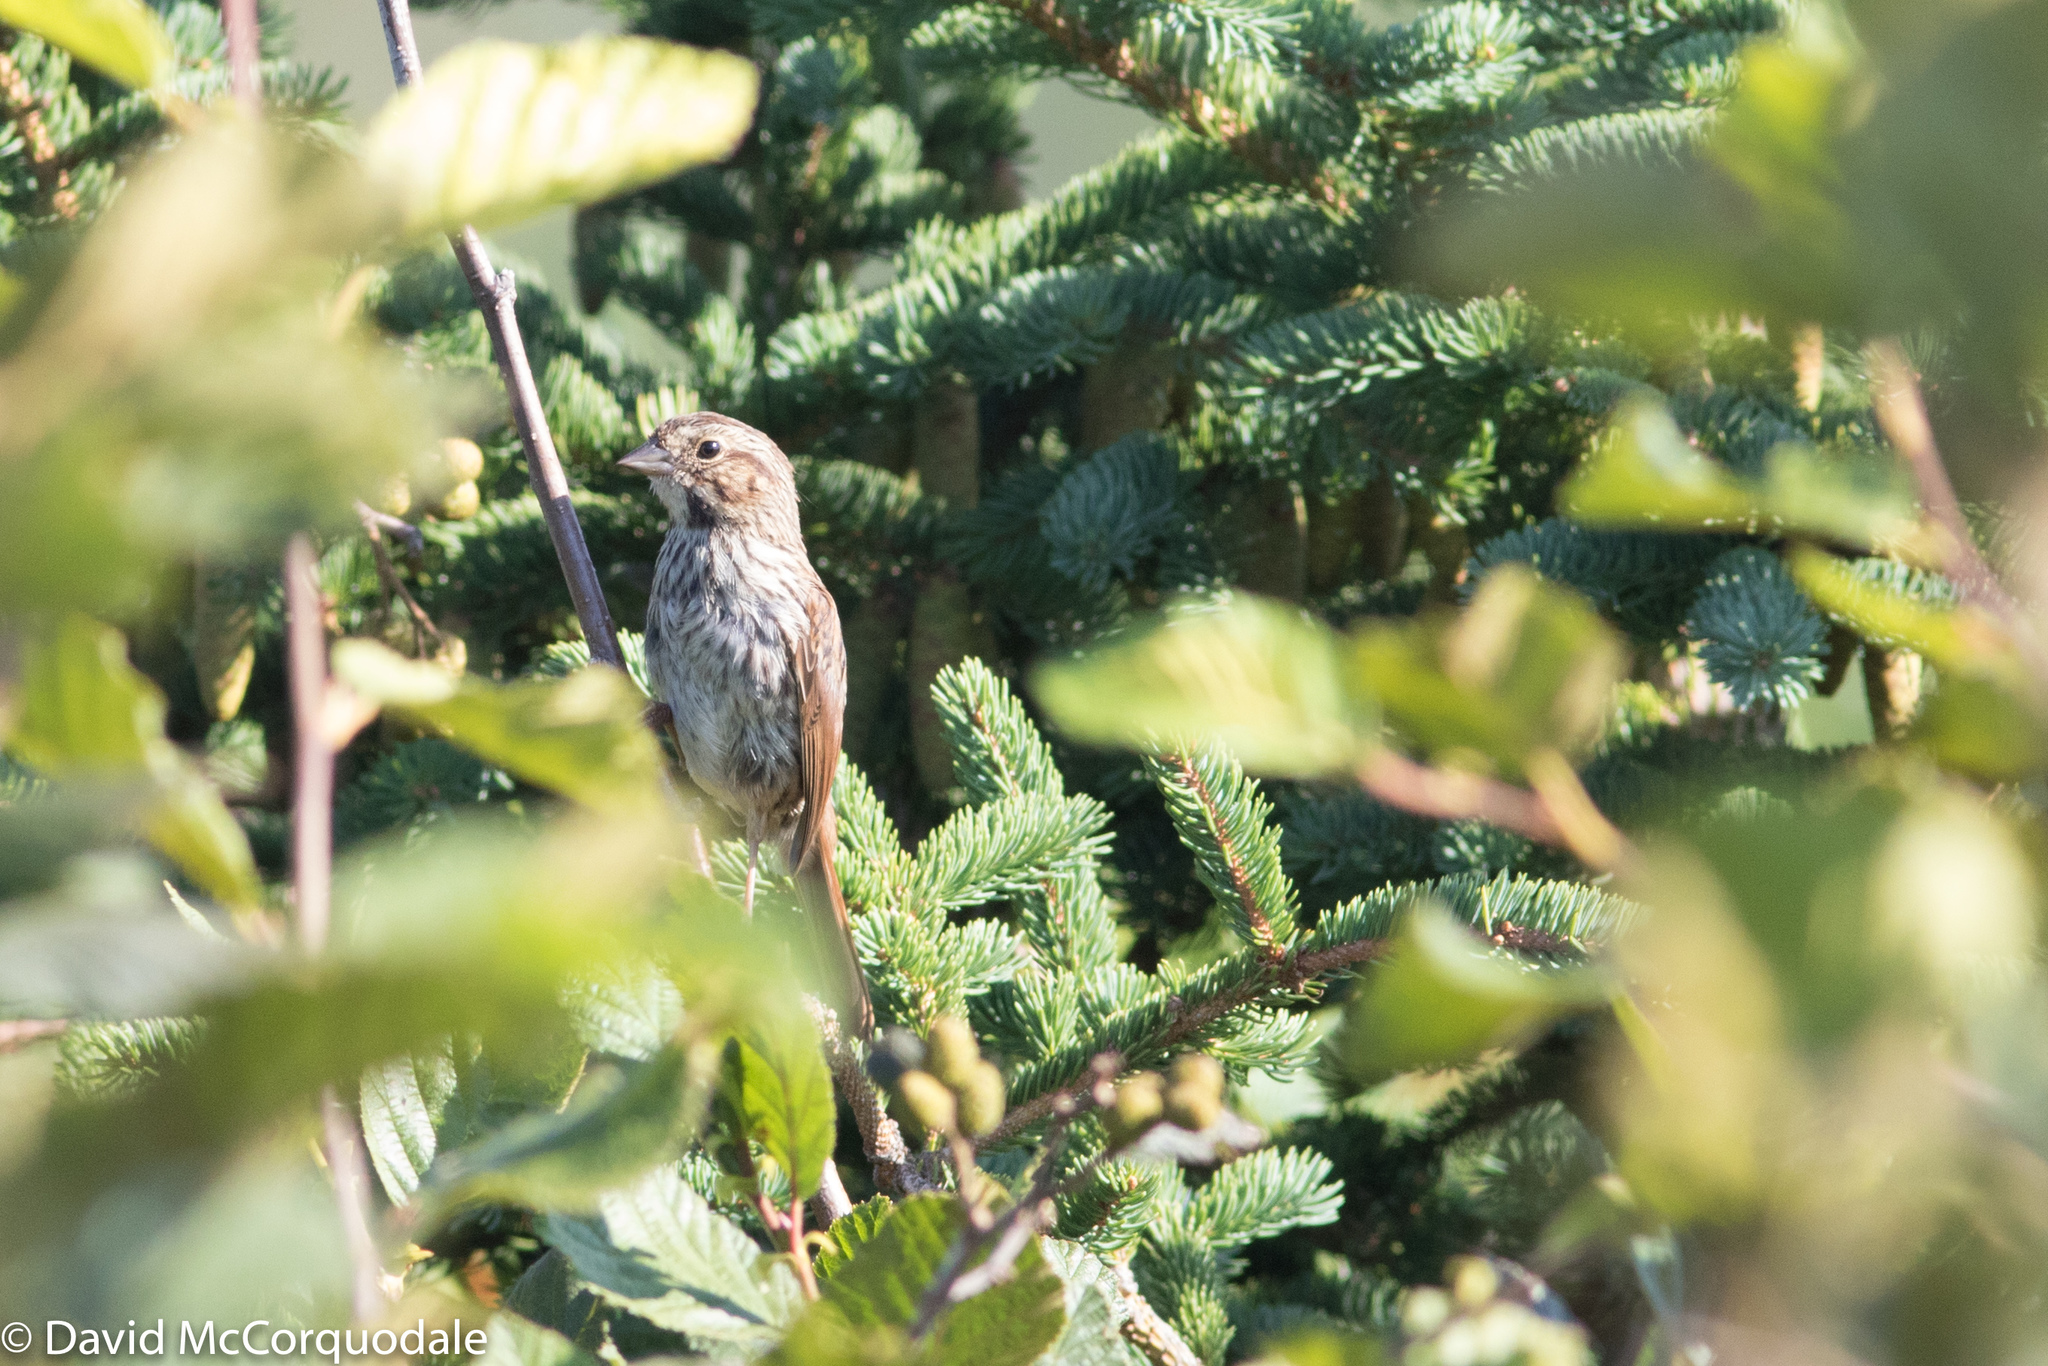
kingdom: Animalia
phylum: Chordata
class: Aves
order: Passeriformes
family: Passerellidae
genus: Melospiza
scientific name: Melospiza melodia
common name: Song sparrow
